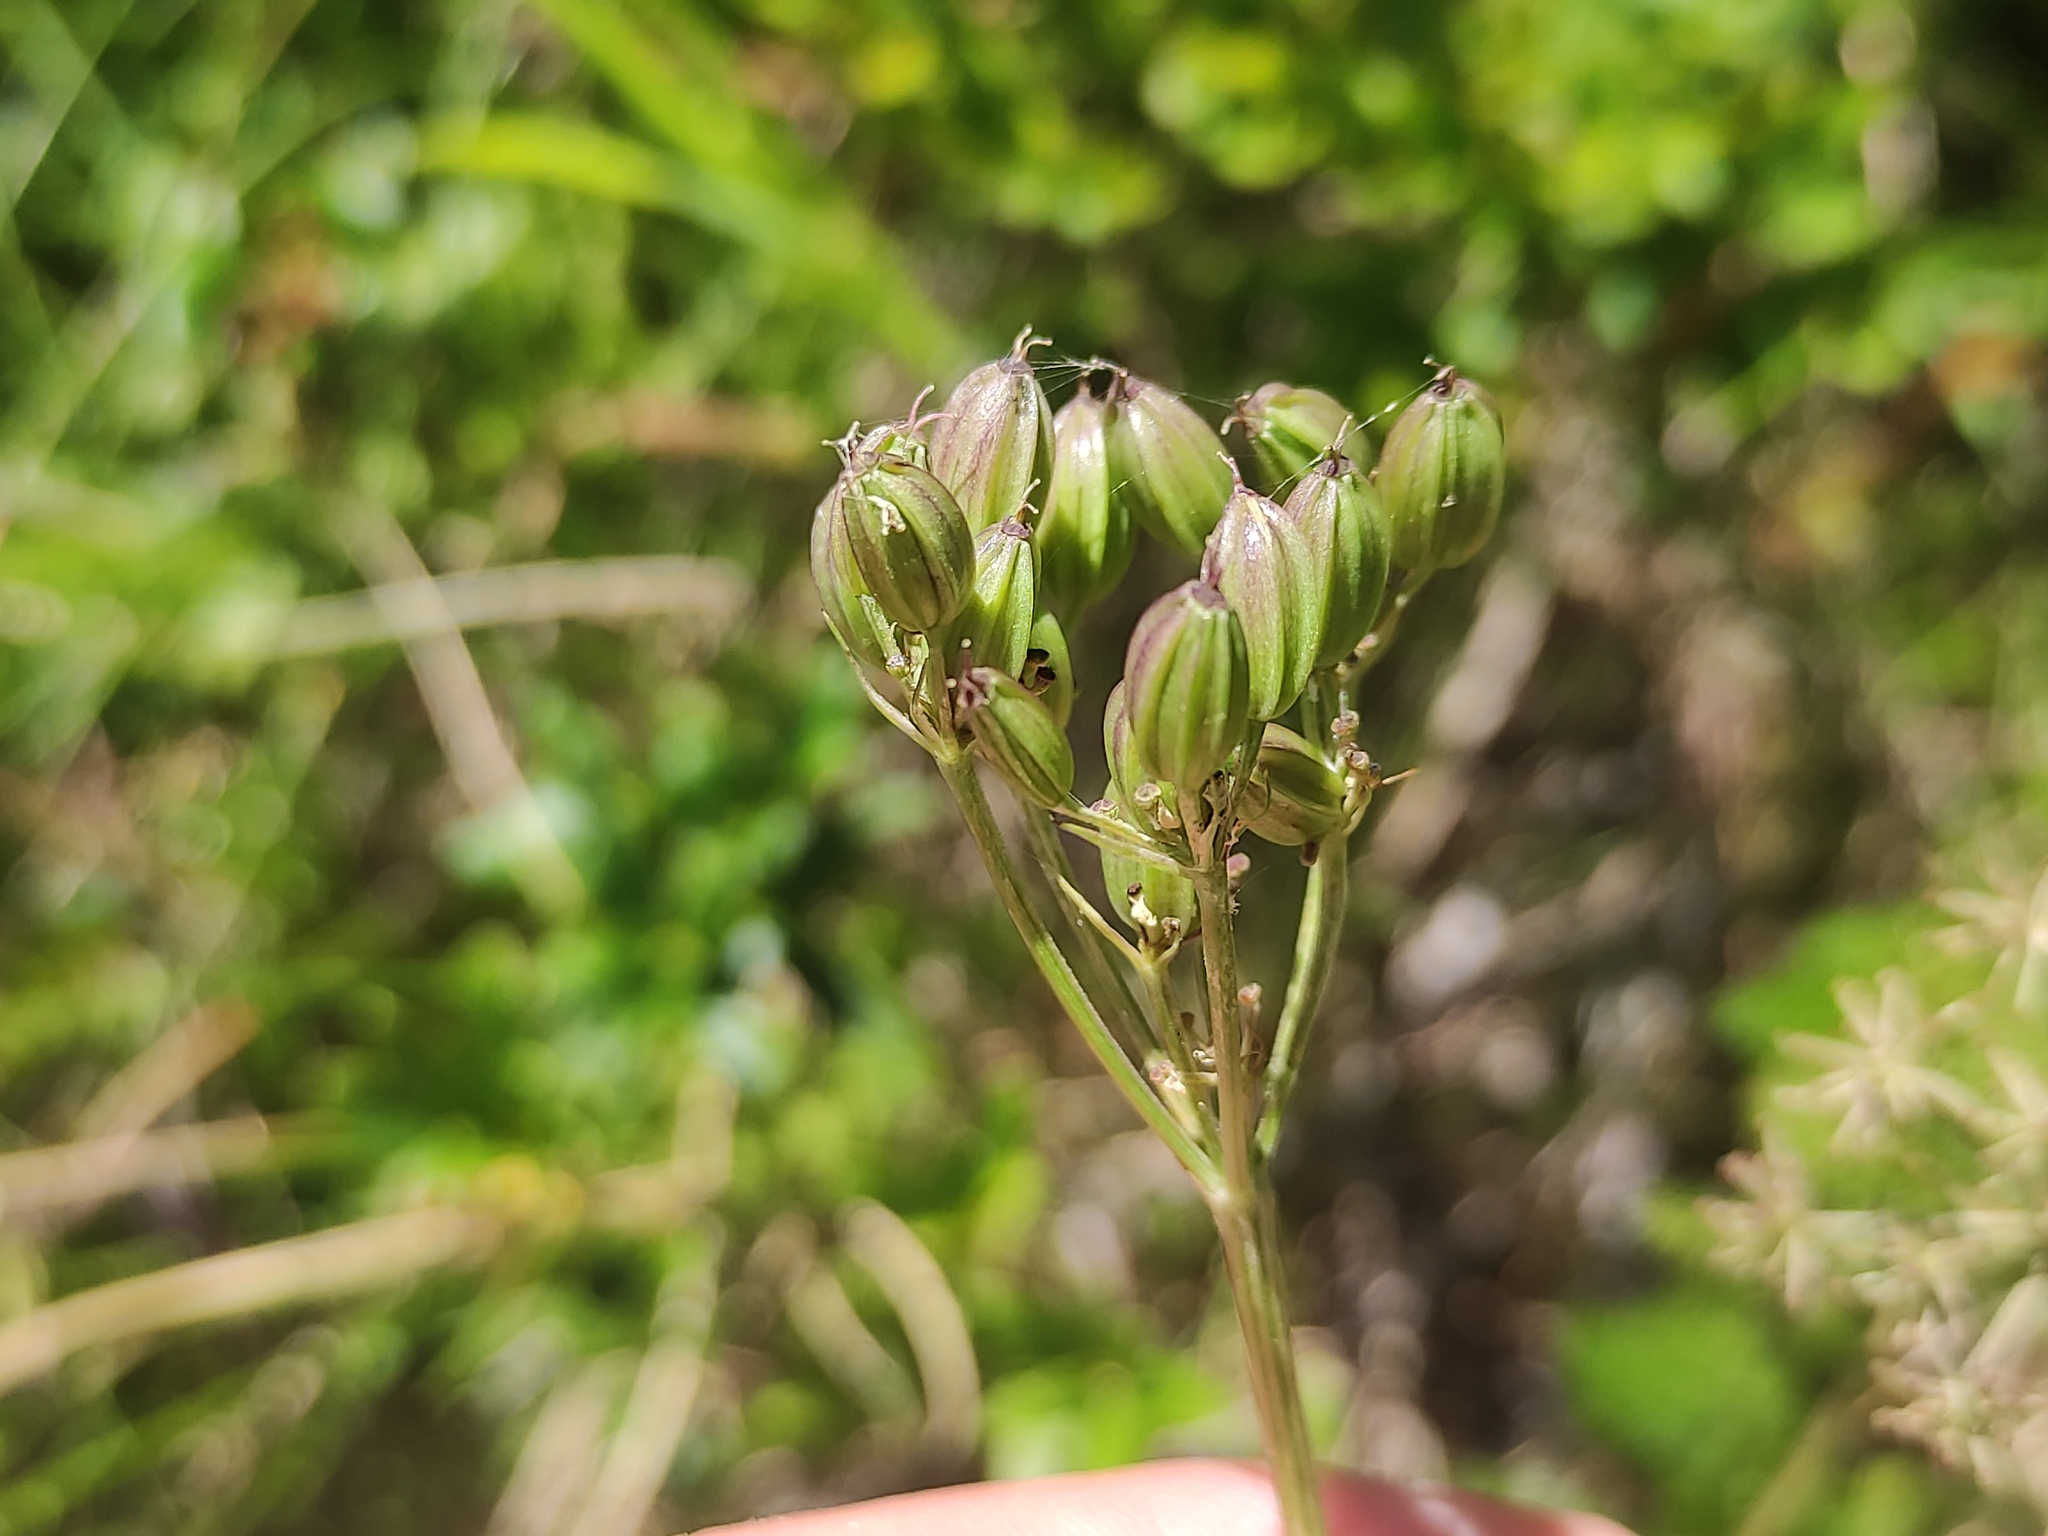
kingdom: Plantae
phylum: Tracheophyta
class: Magnoliopsida
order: Apiales
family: Apiaceae
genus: Meum
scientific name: Meum athamanticum
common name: Spignel
